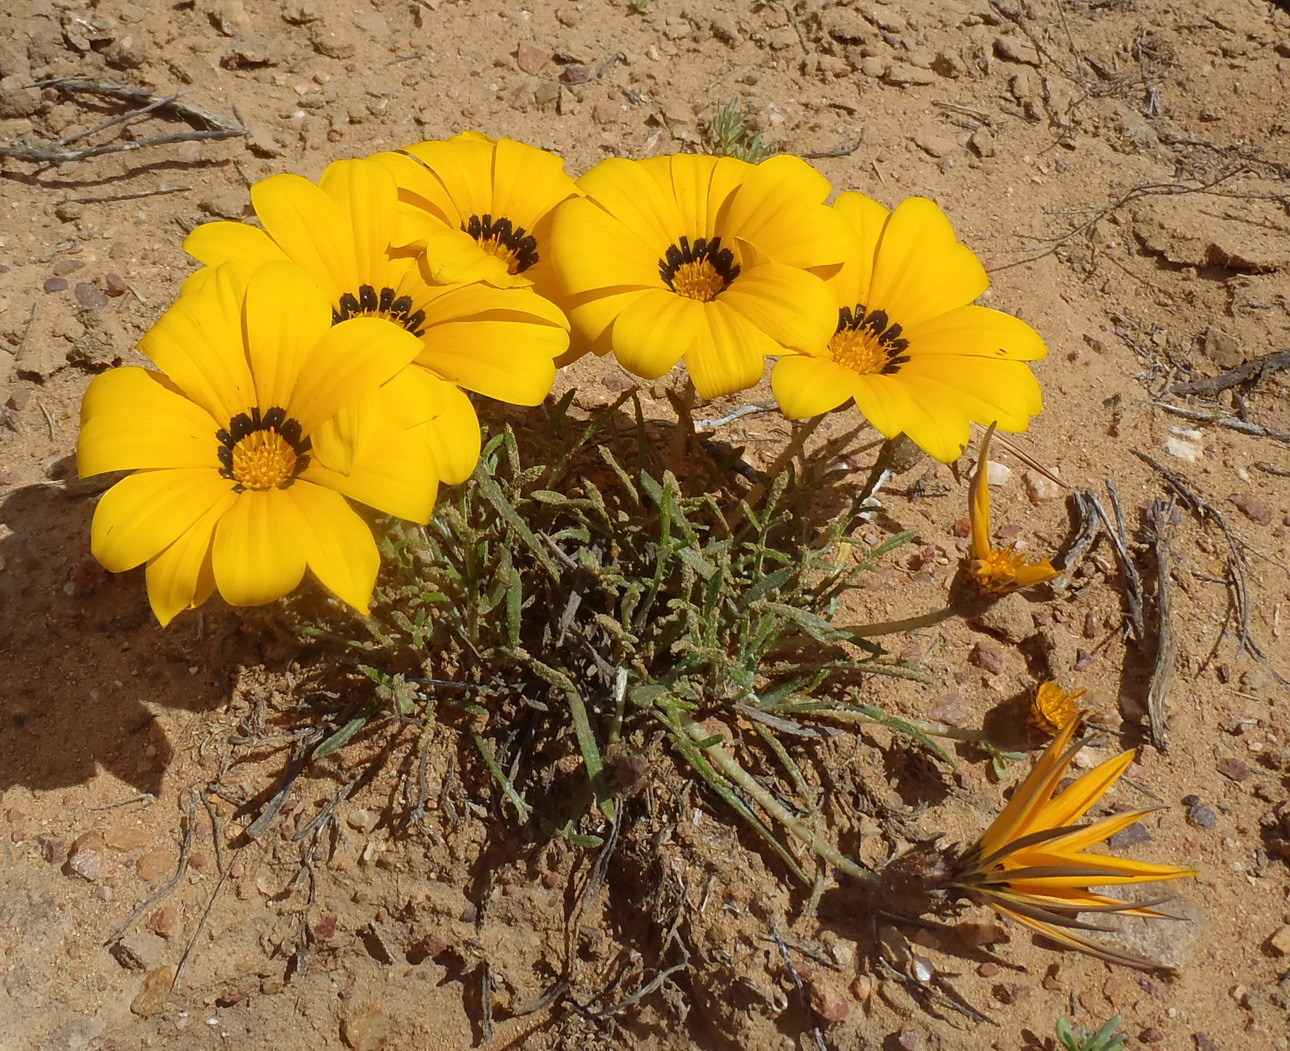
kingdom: Plantae
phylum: Tracheophyta
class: Magnoliopsida
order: Asterales
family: Asteraceae
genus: Gazania
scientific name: Gazania krebsiana
